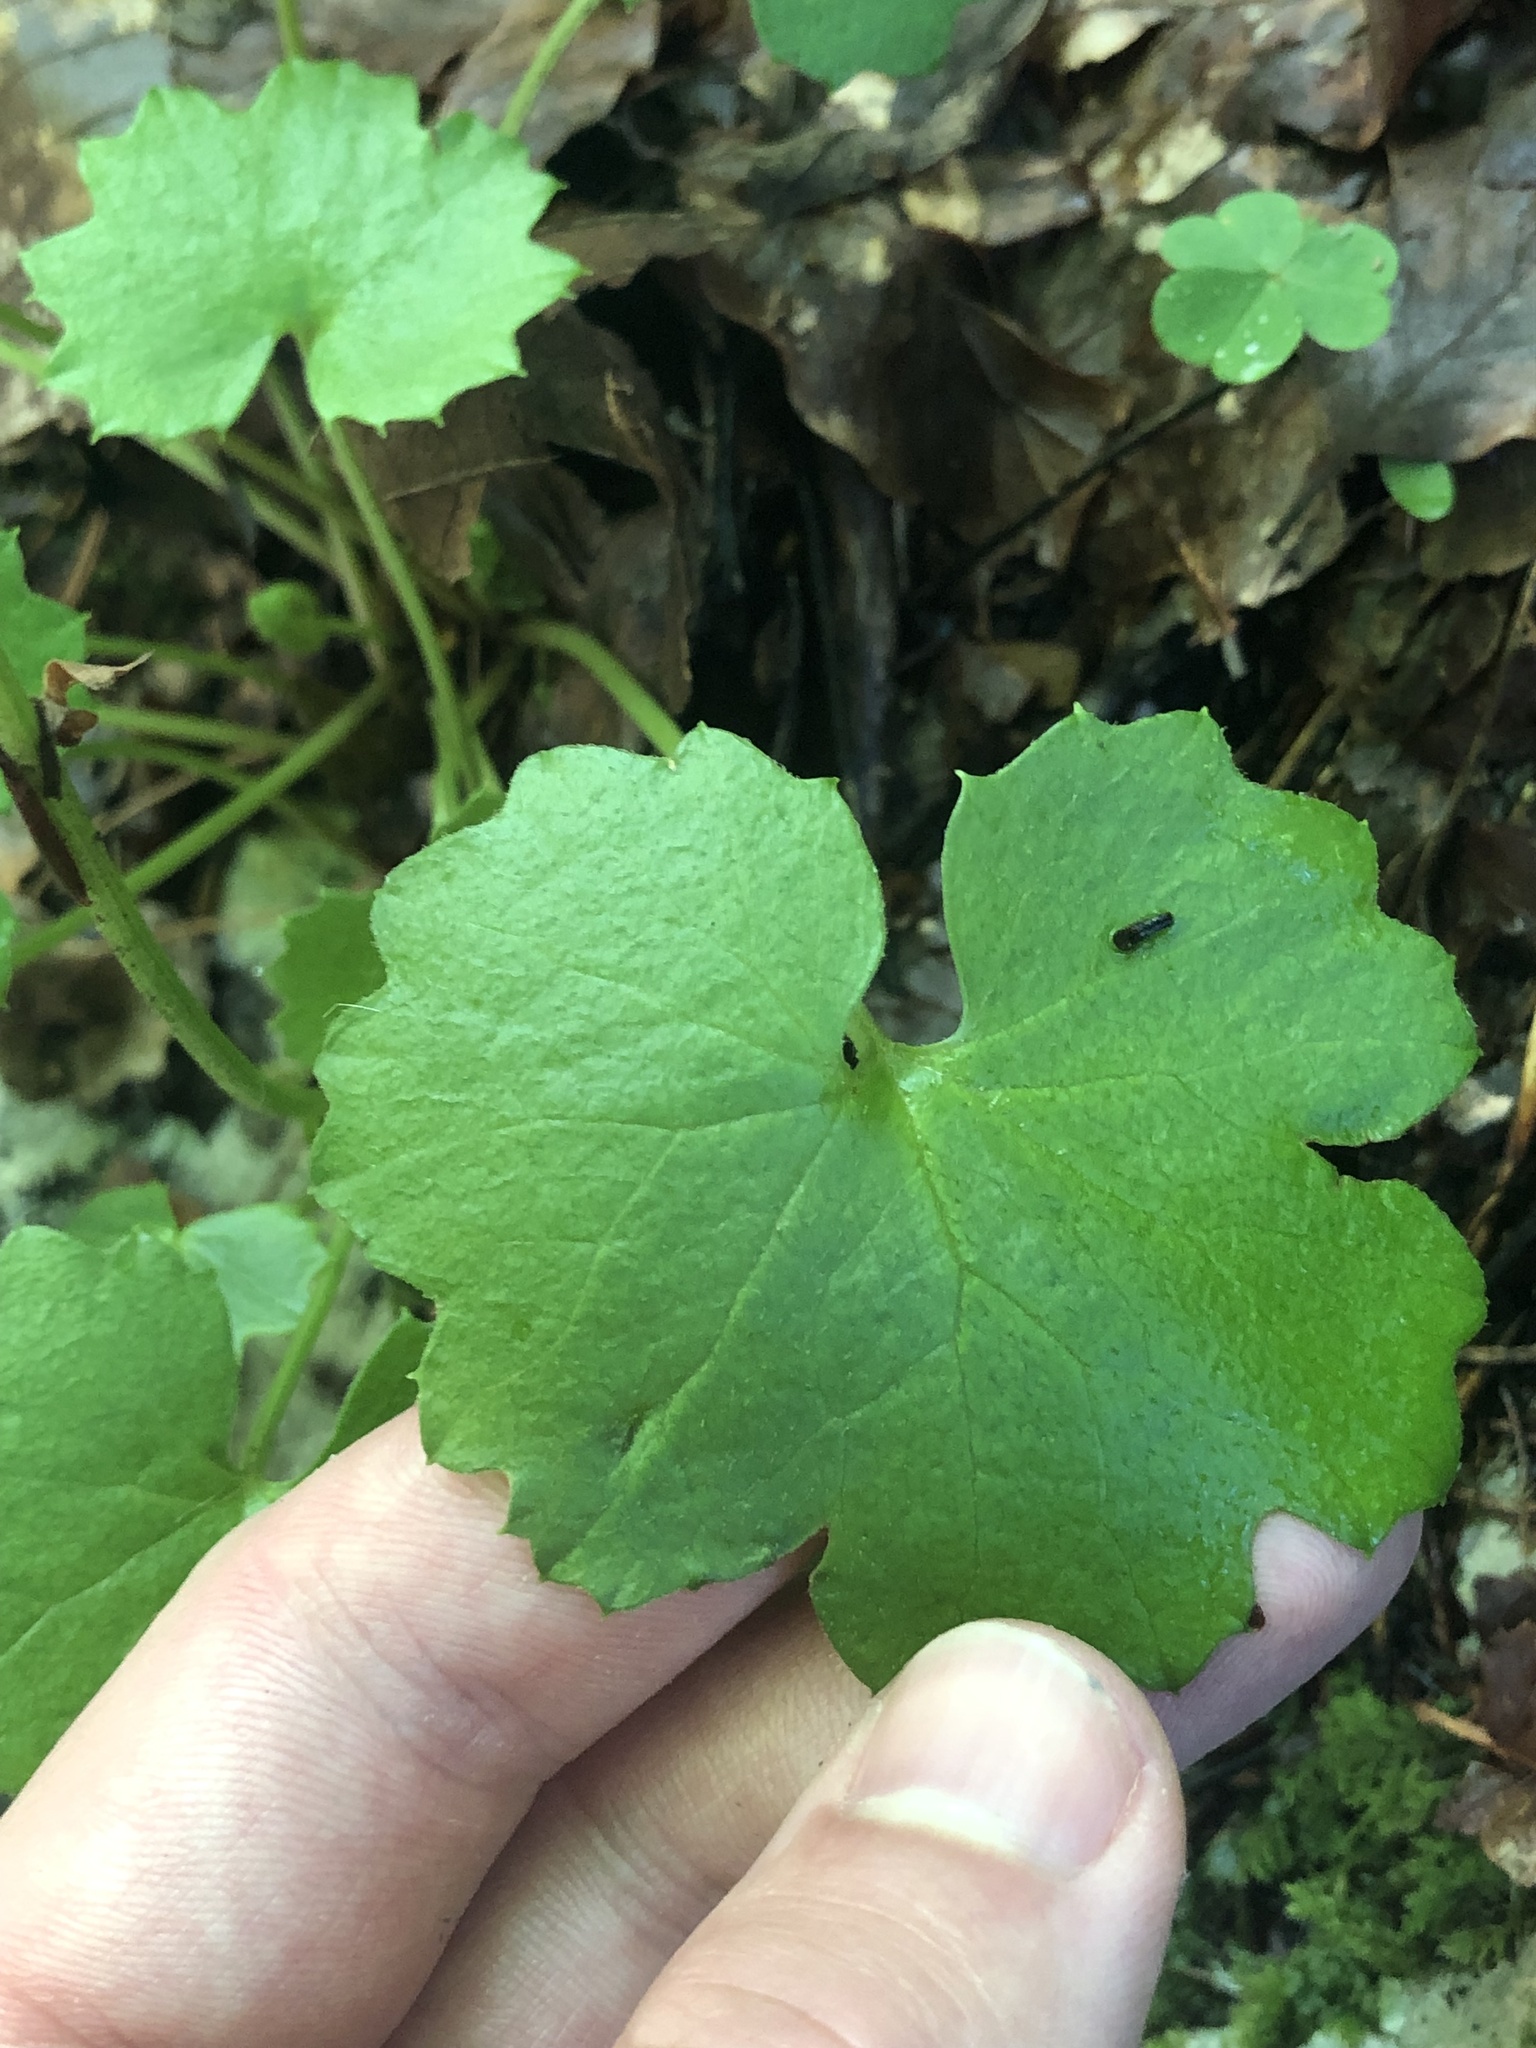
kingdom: Plantae
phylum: Tracheophyta
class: Magnoliopsida
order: Asterales
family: Asteraceae
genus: Homogyne
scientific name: Homogyne sylvestris
